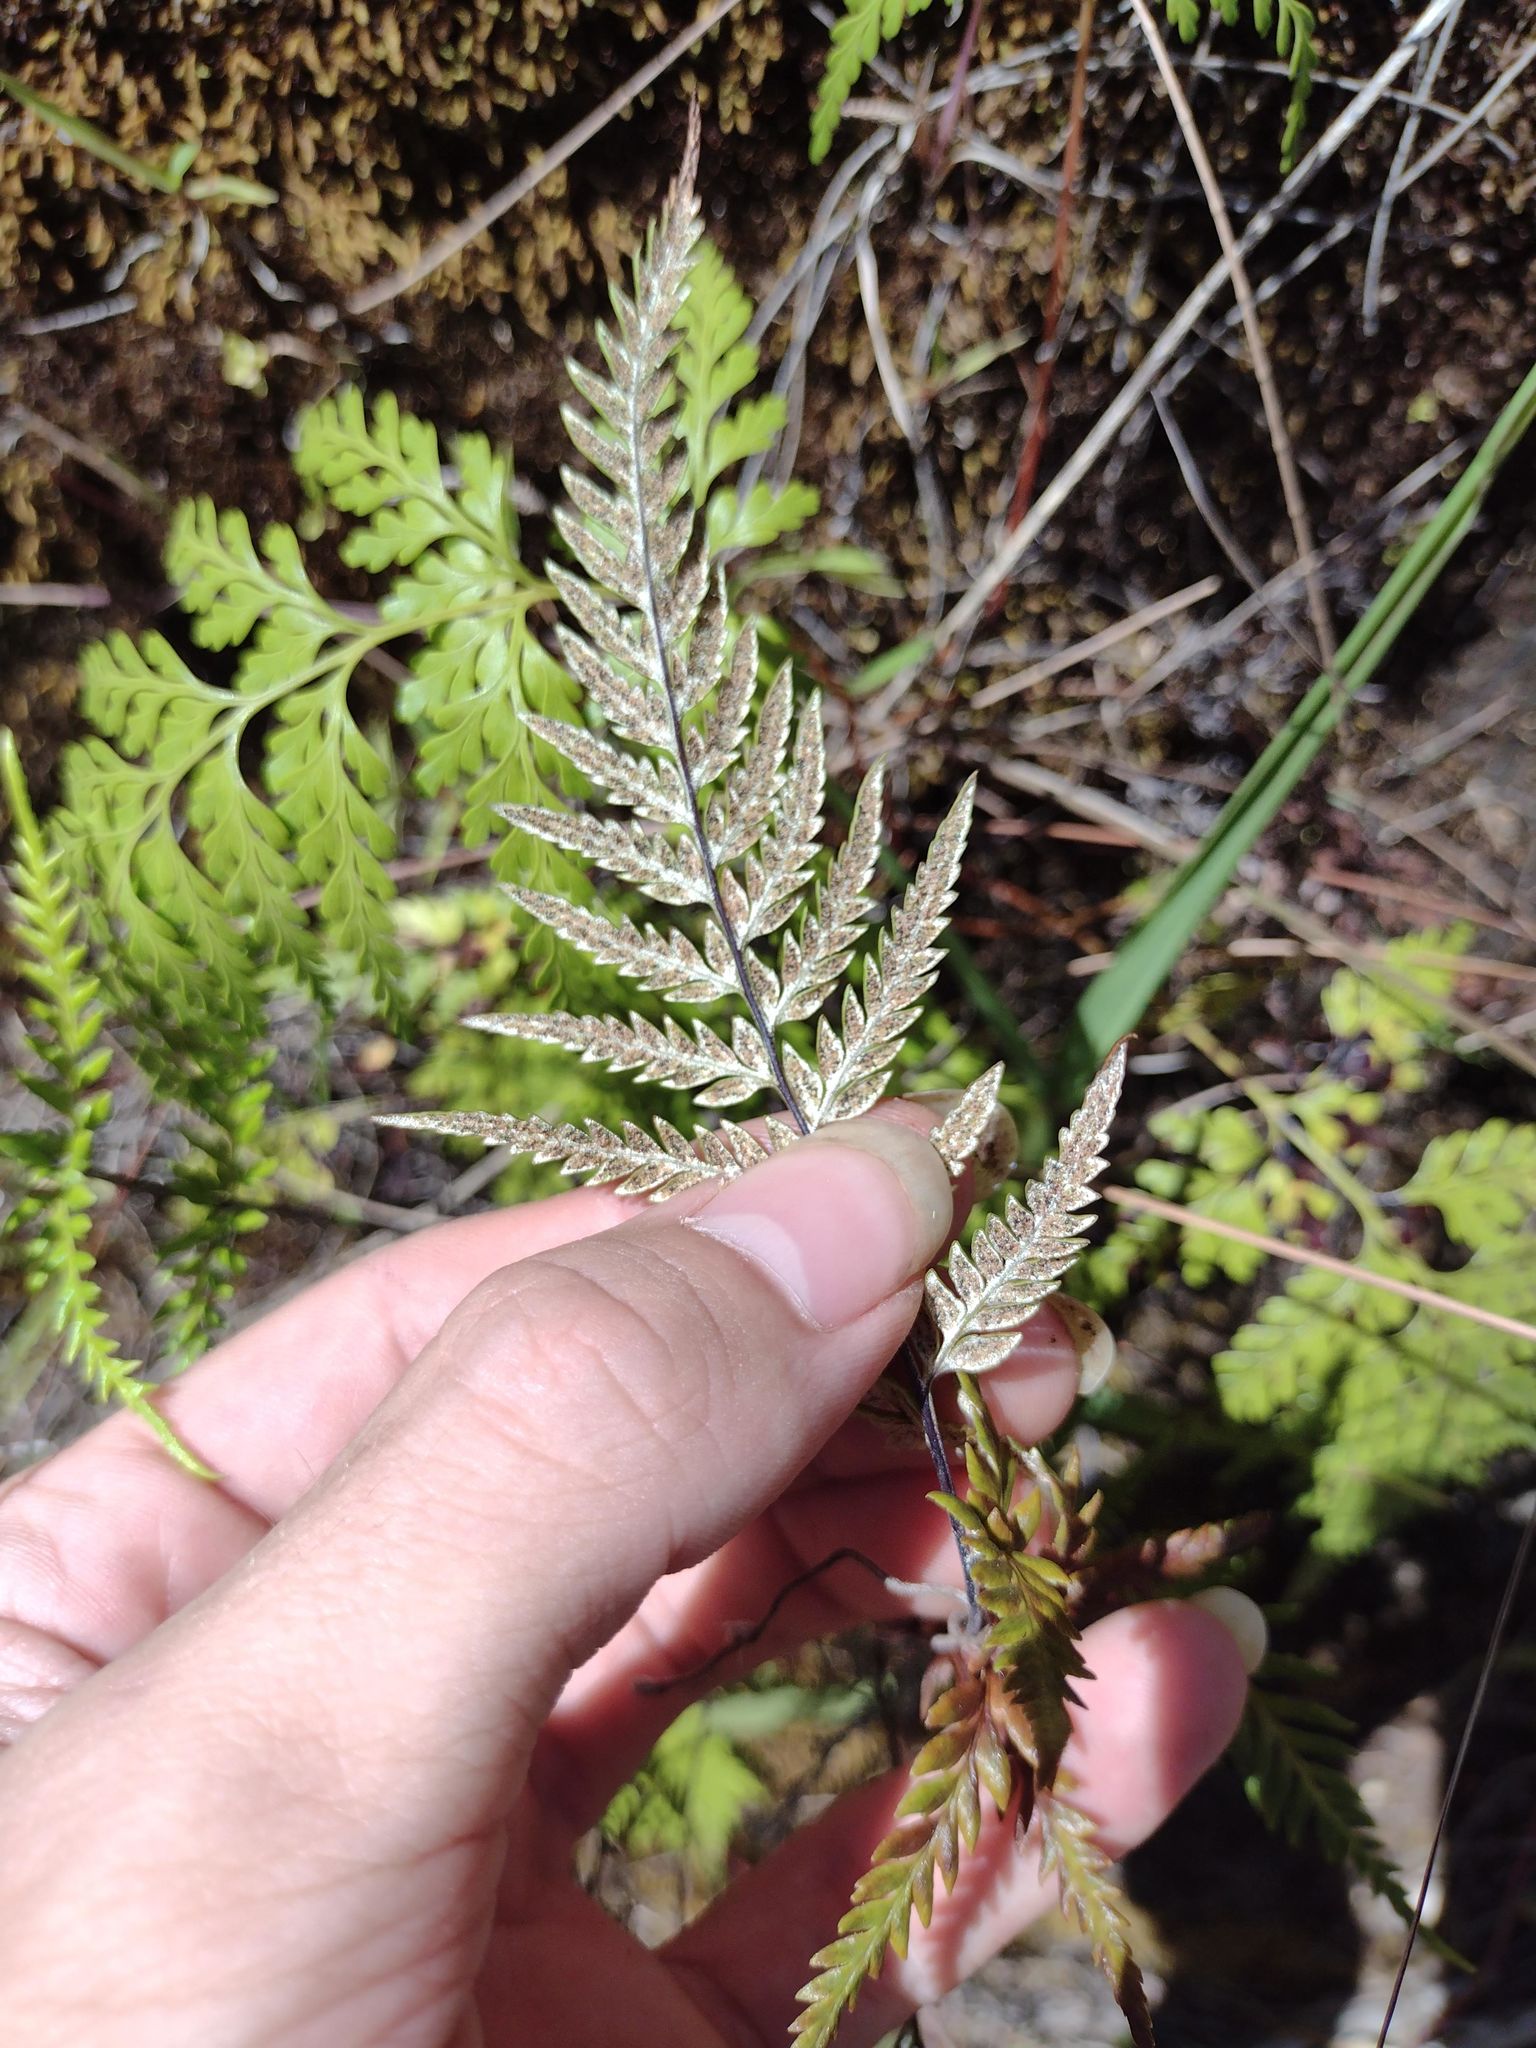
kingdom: Plantae
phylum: Tracheophyta
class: Polypodiopsida
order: Polypodiales
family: Pteridaceae
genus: Pityrogramma
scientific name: Pityrogramma calomelanos
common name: Dixie silverback fern
